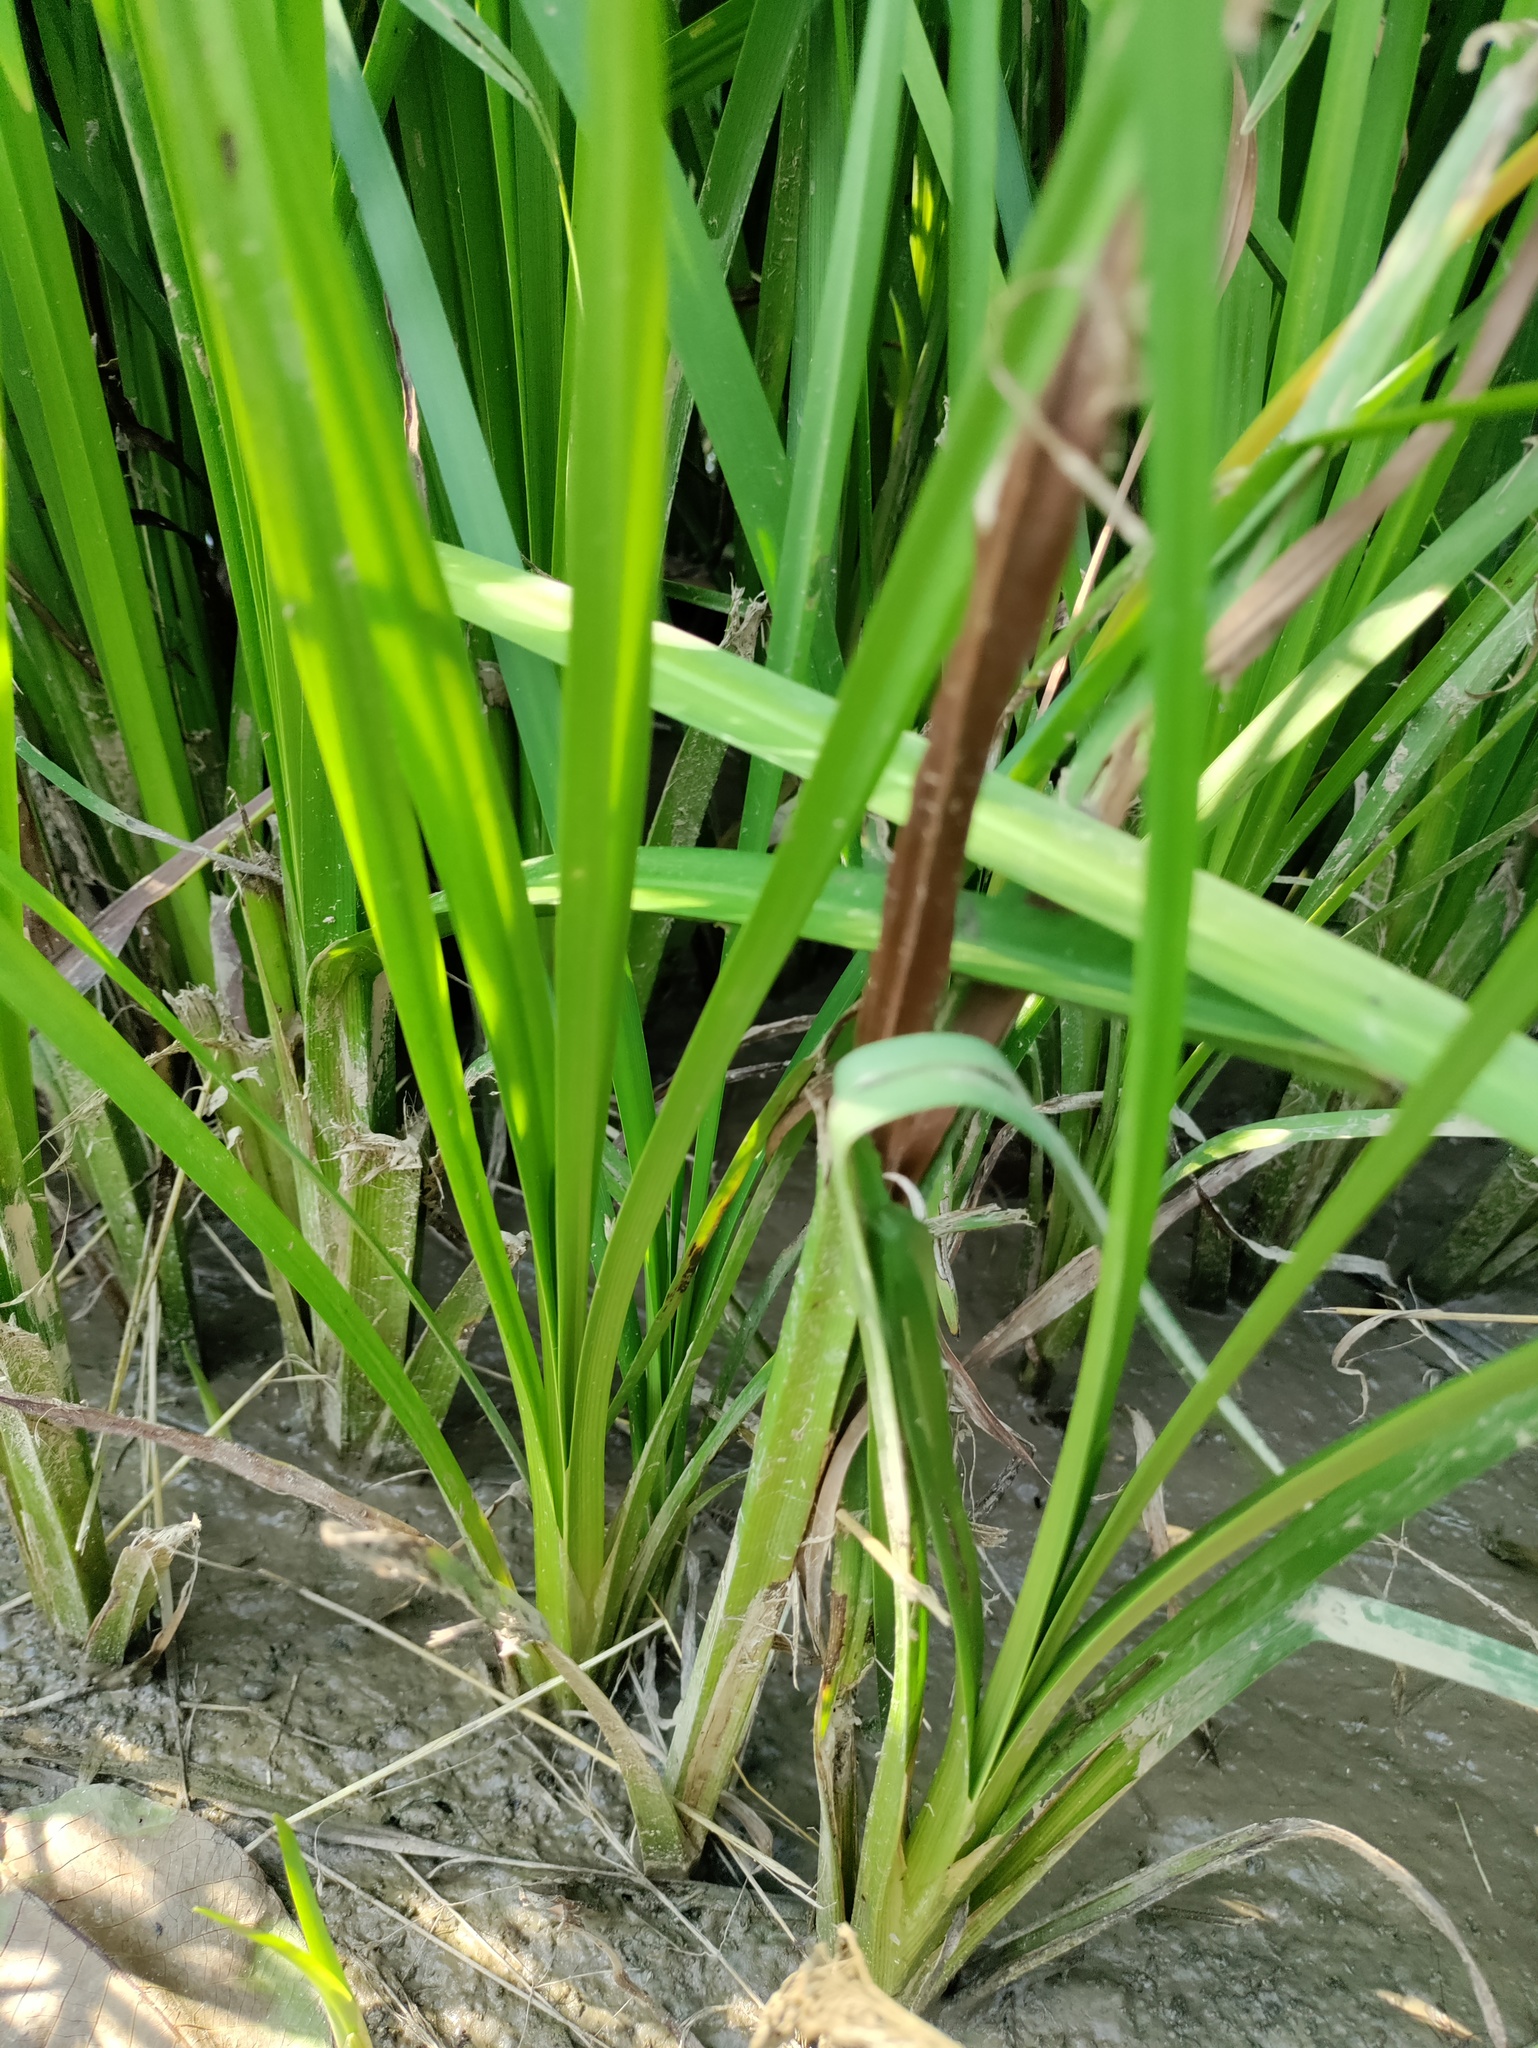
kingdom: Plantae
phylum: Tracheophyta
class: Liliopsida
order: Poales
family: Typhaceae
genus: Sparganium
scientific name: Sparganium erectum
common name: Branched bur-reed
